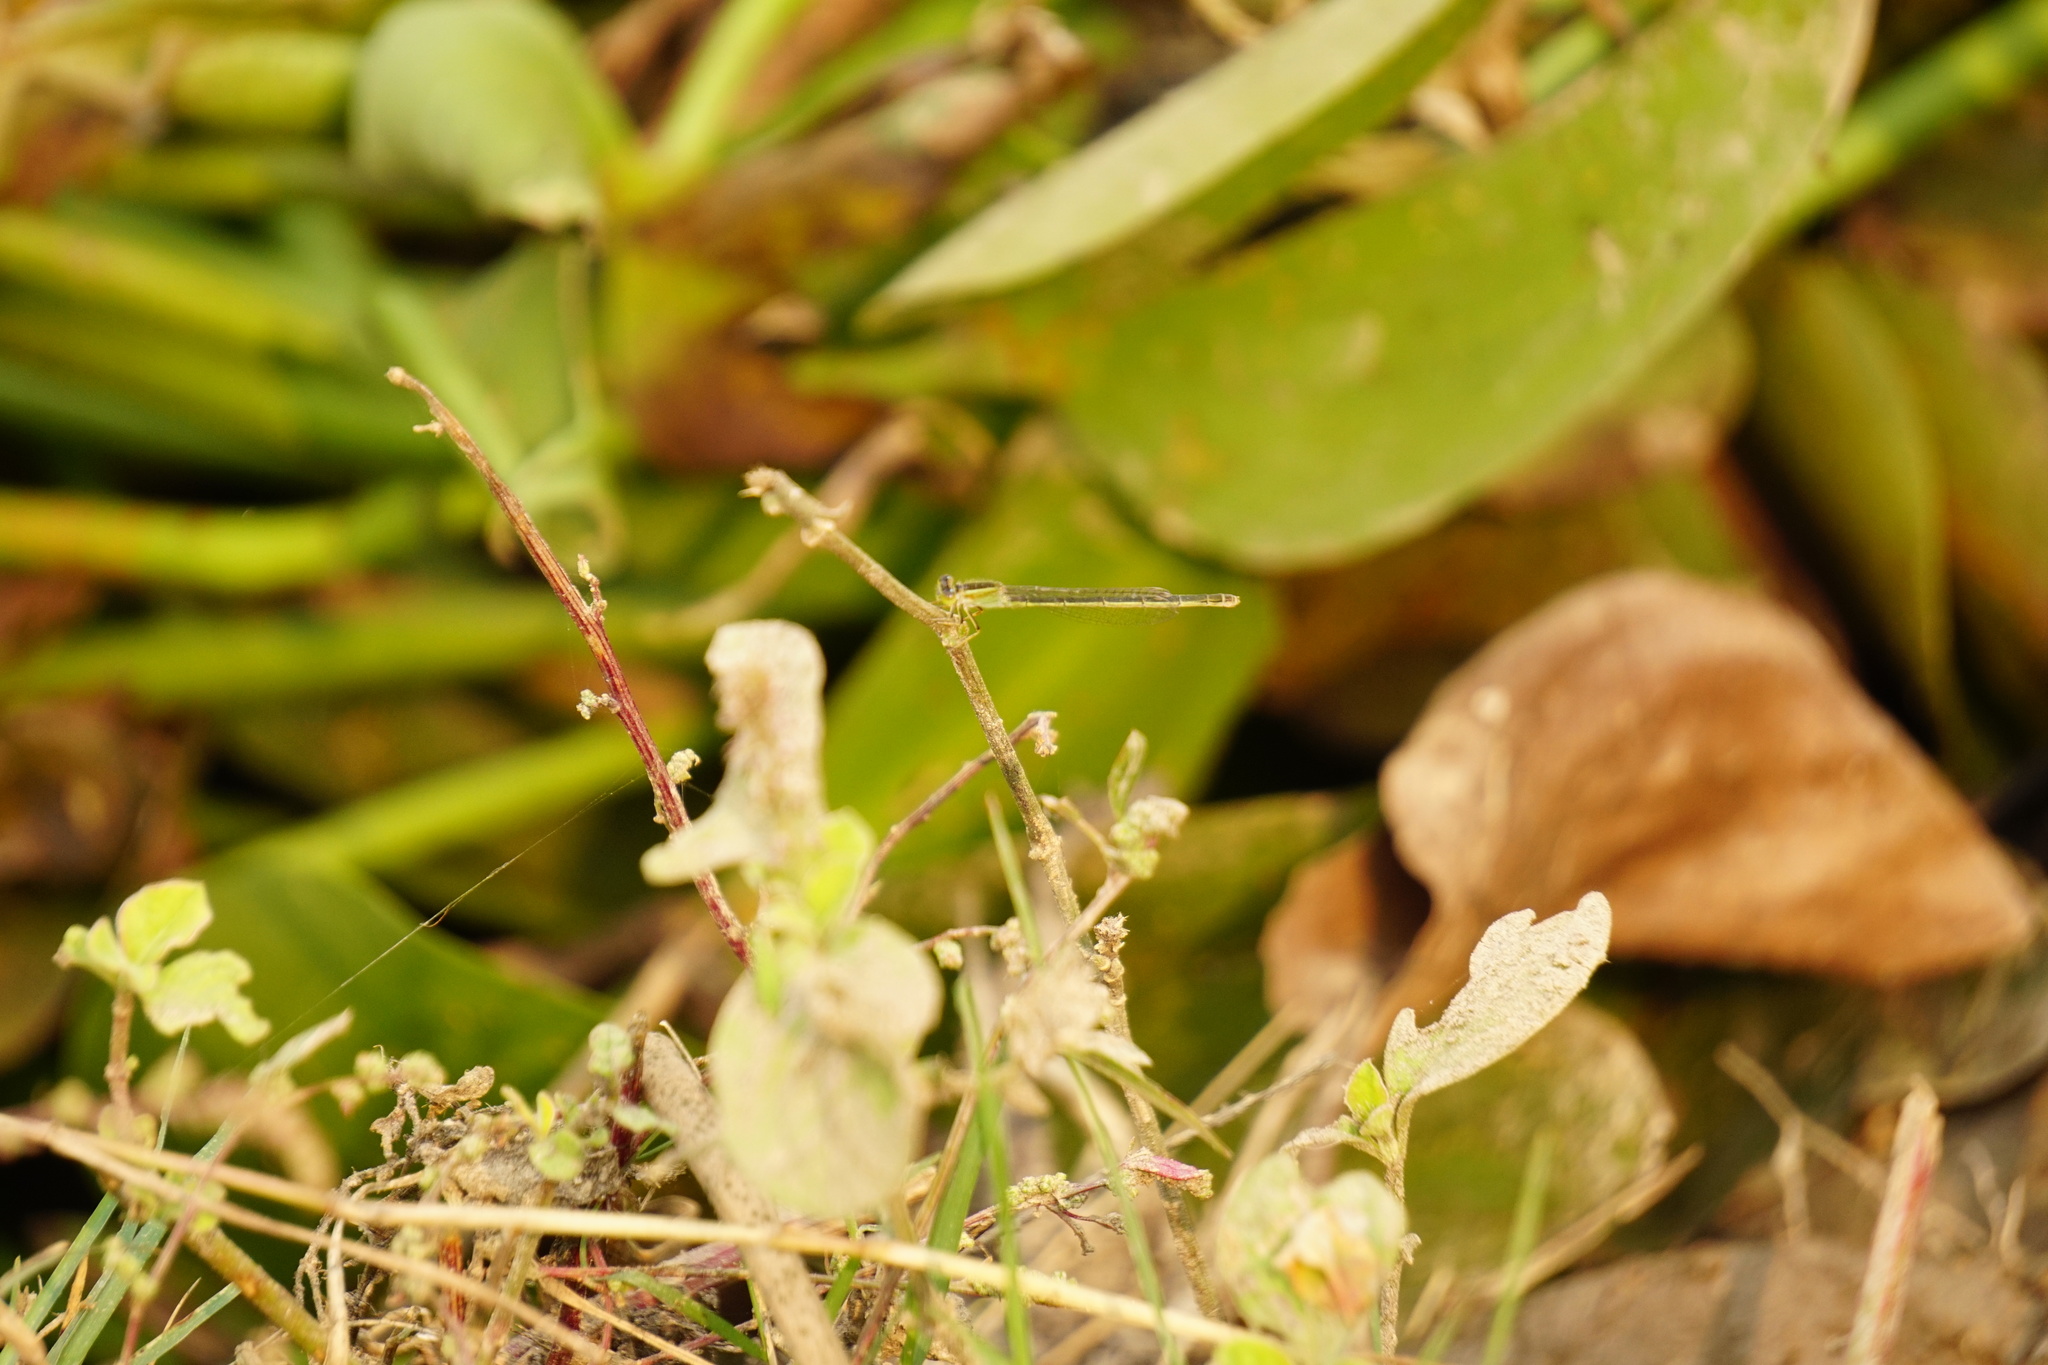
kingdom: Animalia
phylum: Arthropoda
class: Insecta
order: Odonata
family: Coenagrionidae
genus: Ischnura
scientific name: Ischnura senegalensis
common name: Tropical bluetail
